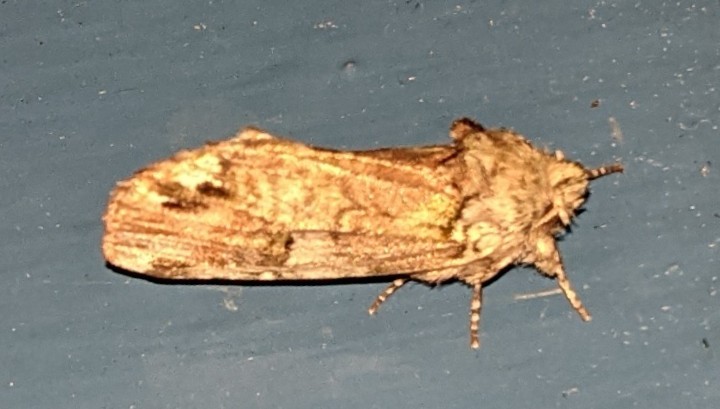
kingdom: Animalia
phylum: Arthropoda
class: Insecta
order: Lepidoptera
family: Notodontidae
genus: Schizura
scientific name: Schizura
